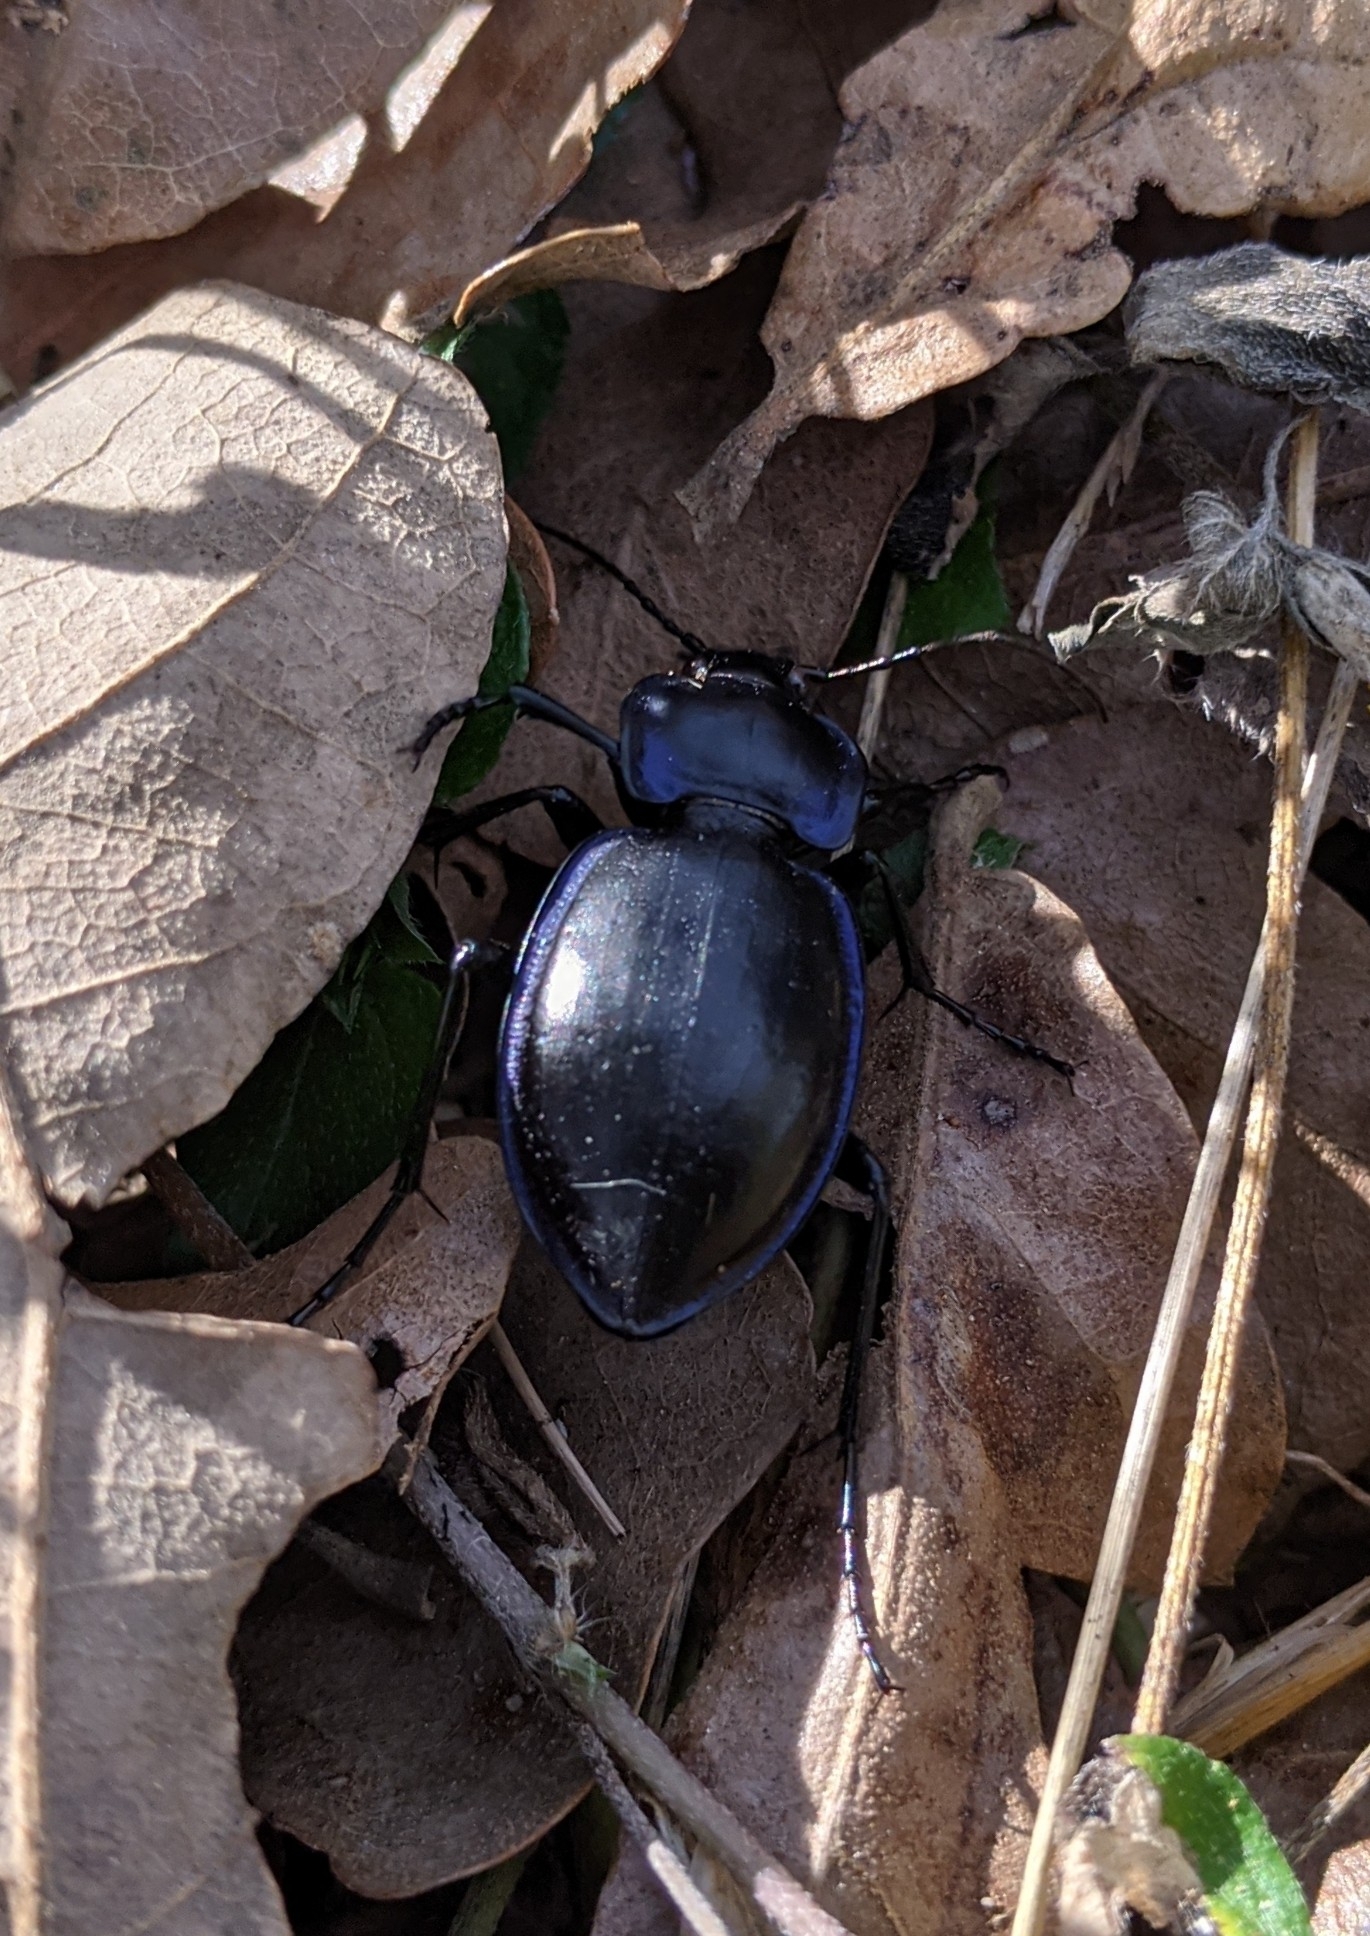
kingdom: Animalia
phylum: Arthropoda
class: Insecta
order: Coleoptera
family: Carabidae
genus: Carabus
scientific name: Carabus finitimus
